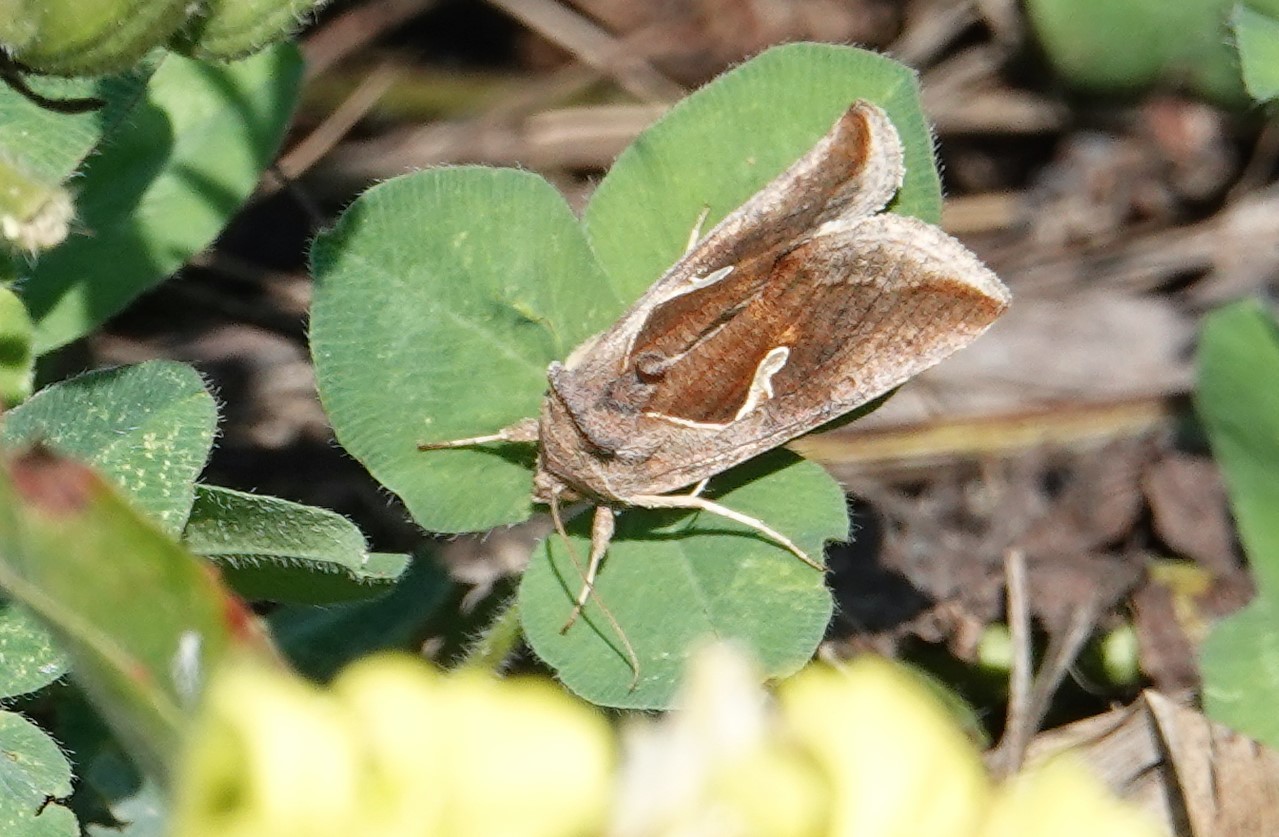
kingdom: Animalia
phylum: Arthropoda
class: Insecta
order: Lepidoptera
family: Noctuidae
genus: Anagrapha
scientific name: Anagrapha falcifera
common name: Celery looper
